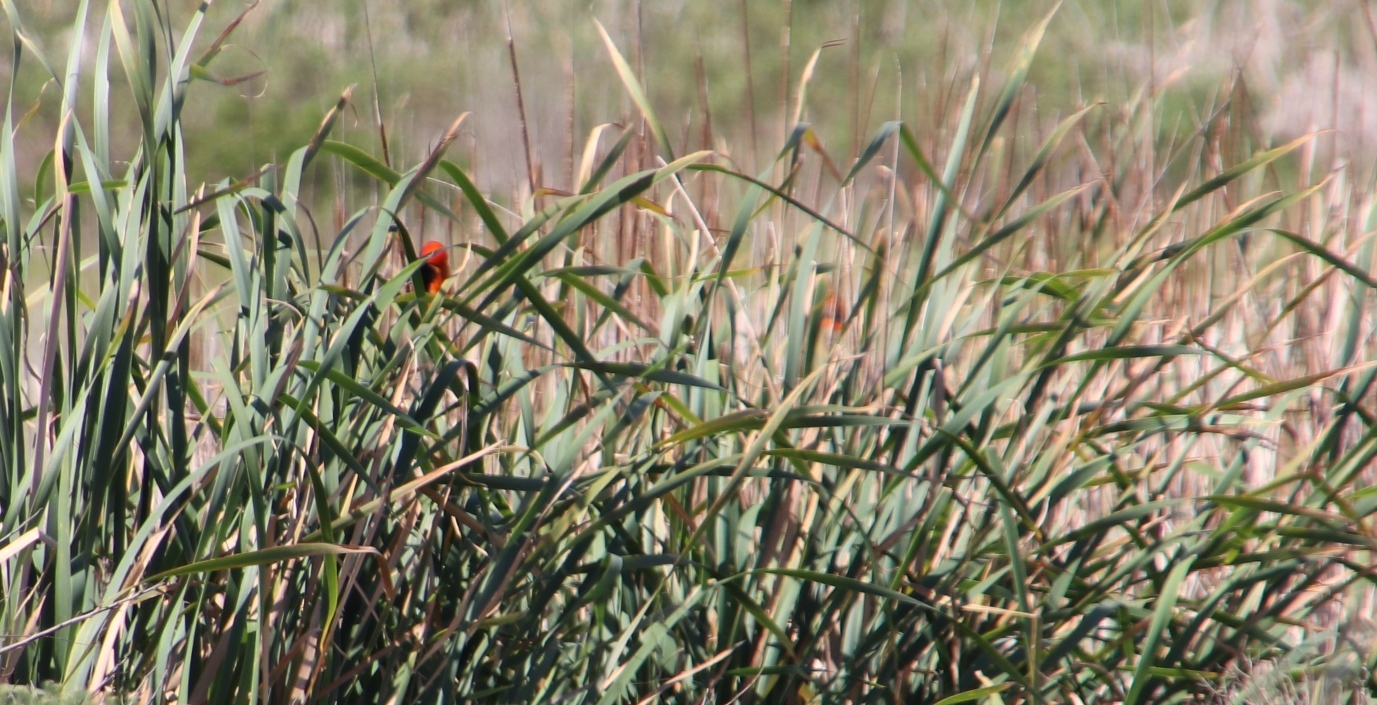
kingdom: Animalia
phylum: Chordata
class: Aves
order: Passeriformes
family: Ploceidae
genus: Euplectes
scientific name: Euplectes orix
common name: Southern red bishop
